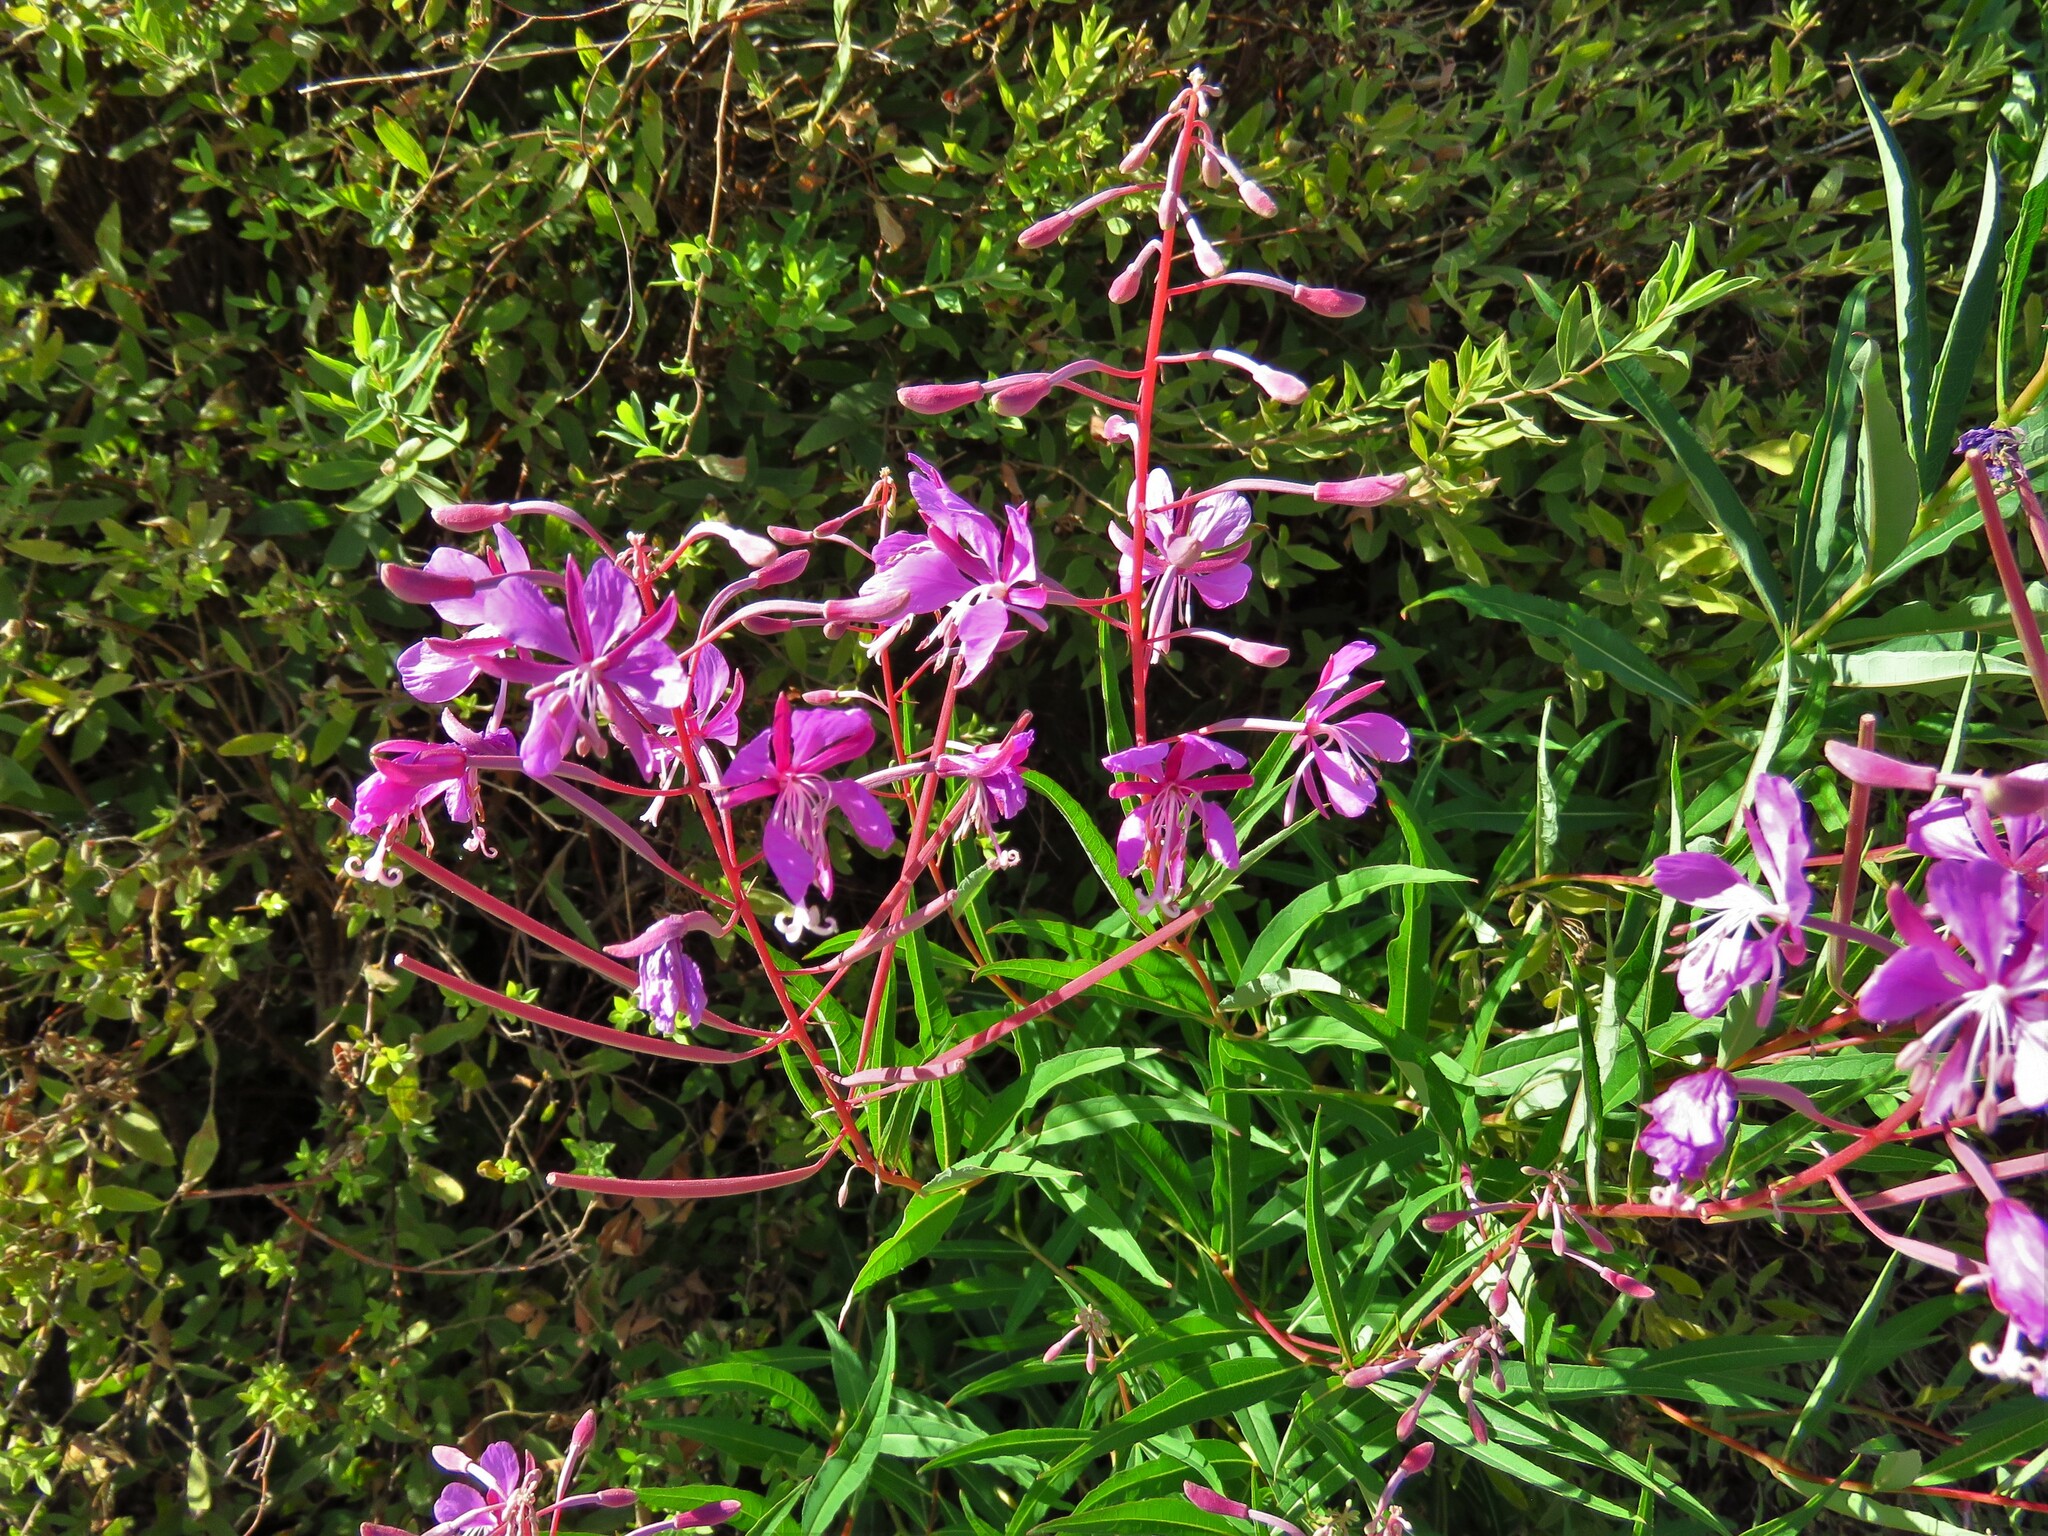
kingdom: Plantae
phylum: Tracheophyta
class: Magnoliopsida
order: Myrtales
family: Onagraceae
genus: Chamaenerion
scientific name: Chamaenerion angustifolium
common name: Fireweed
